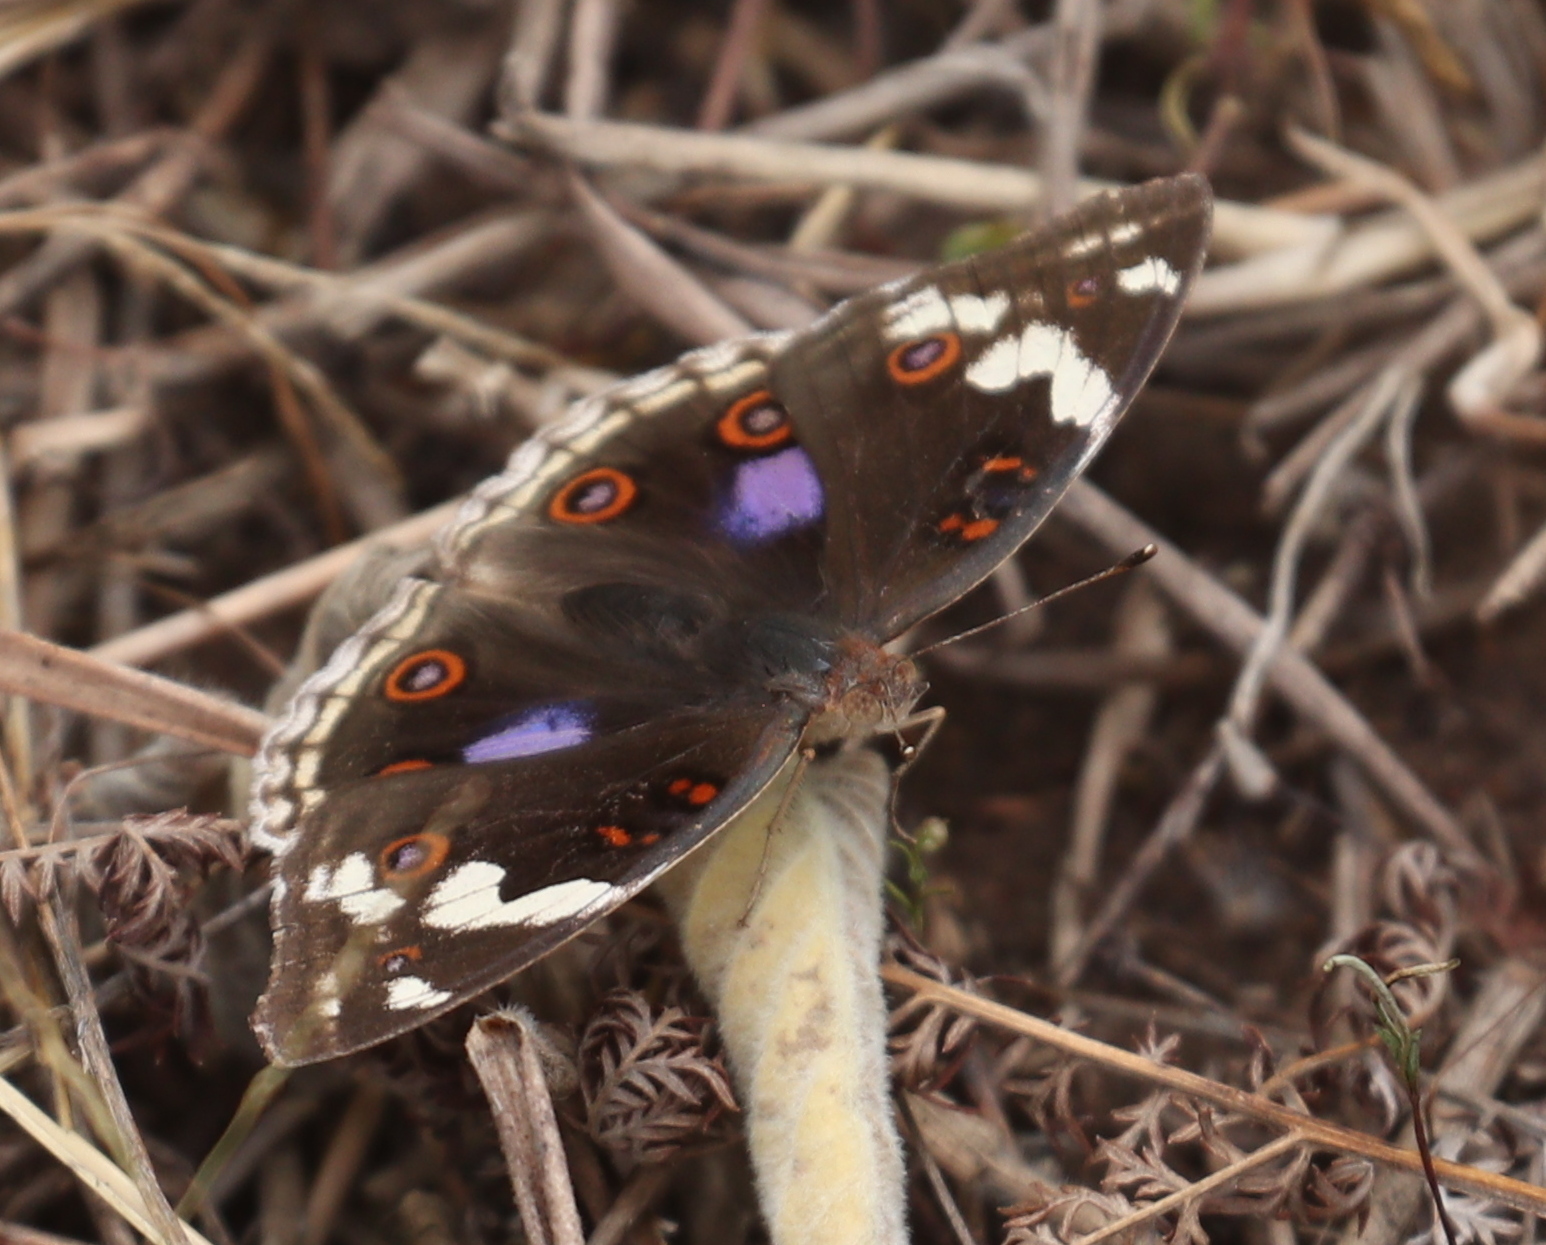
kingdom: Animalia
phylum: Arthropoda
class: Insecta
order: Lepidoptera
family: Nymphalidae
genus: Junonia
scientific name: Junonia oenone
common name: Dark blue pansy
